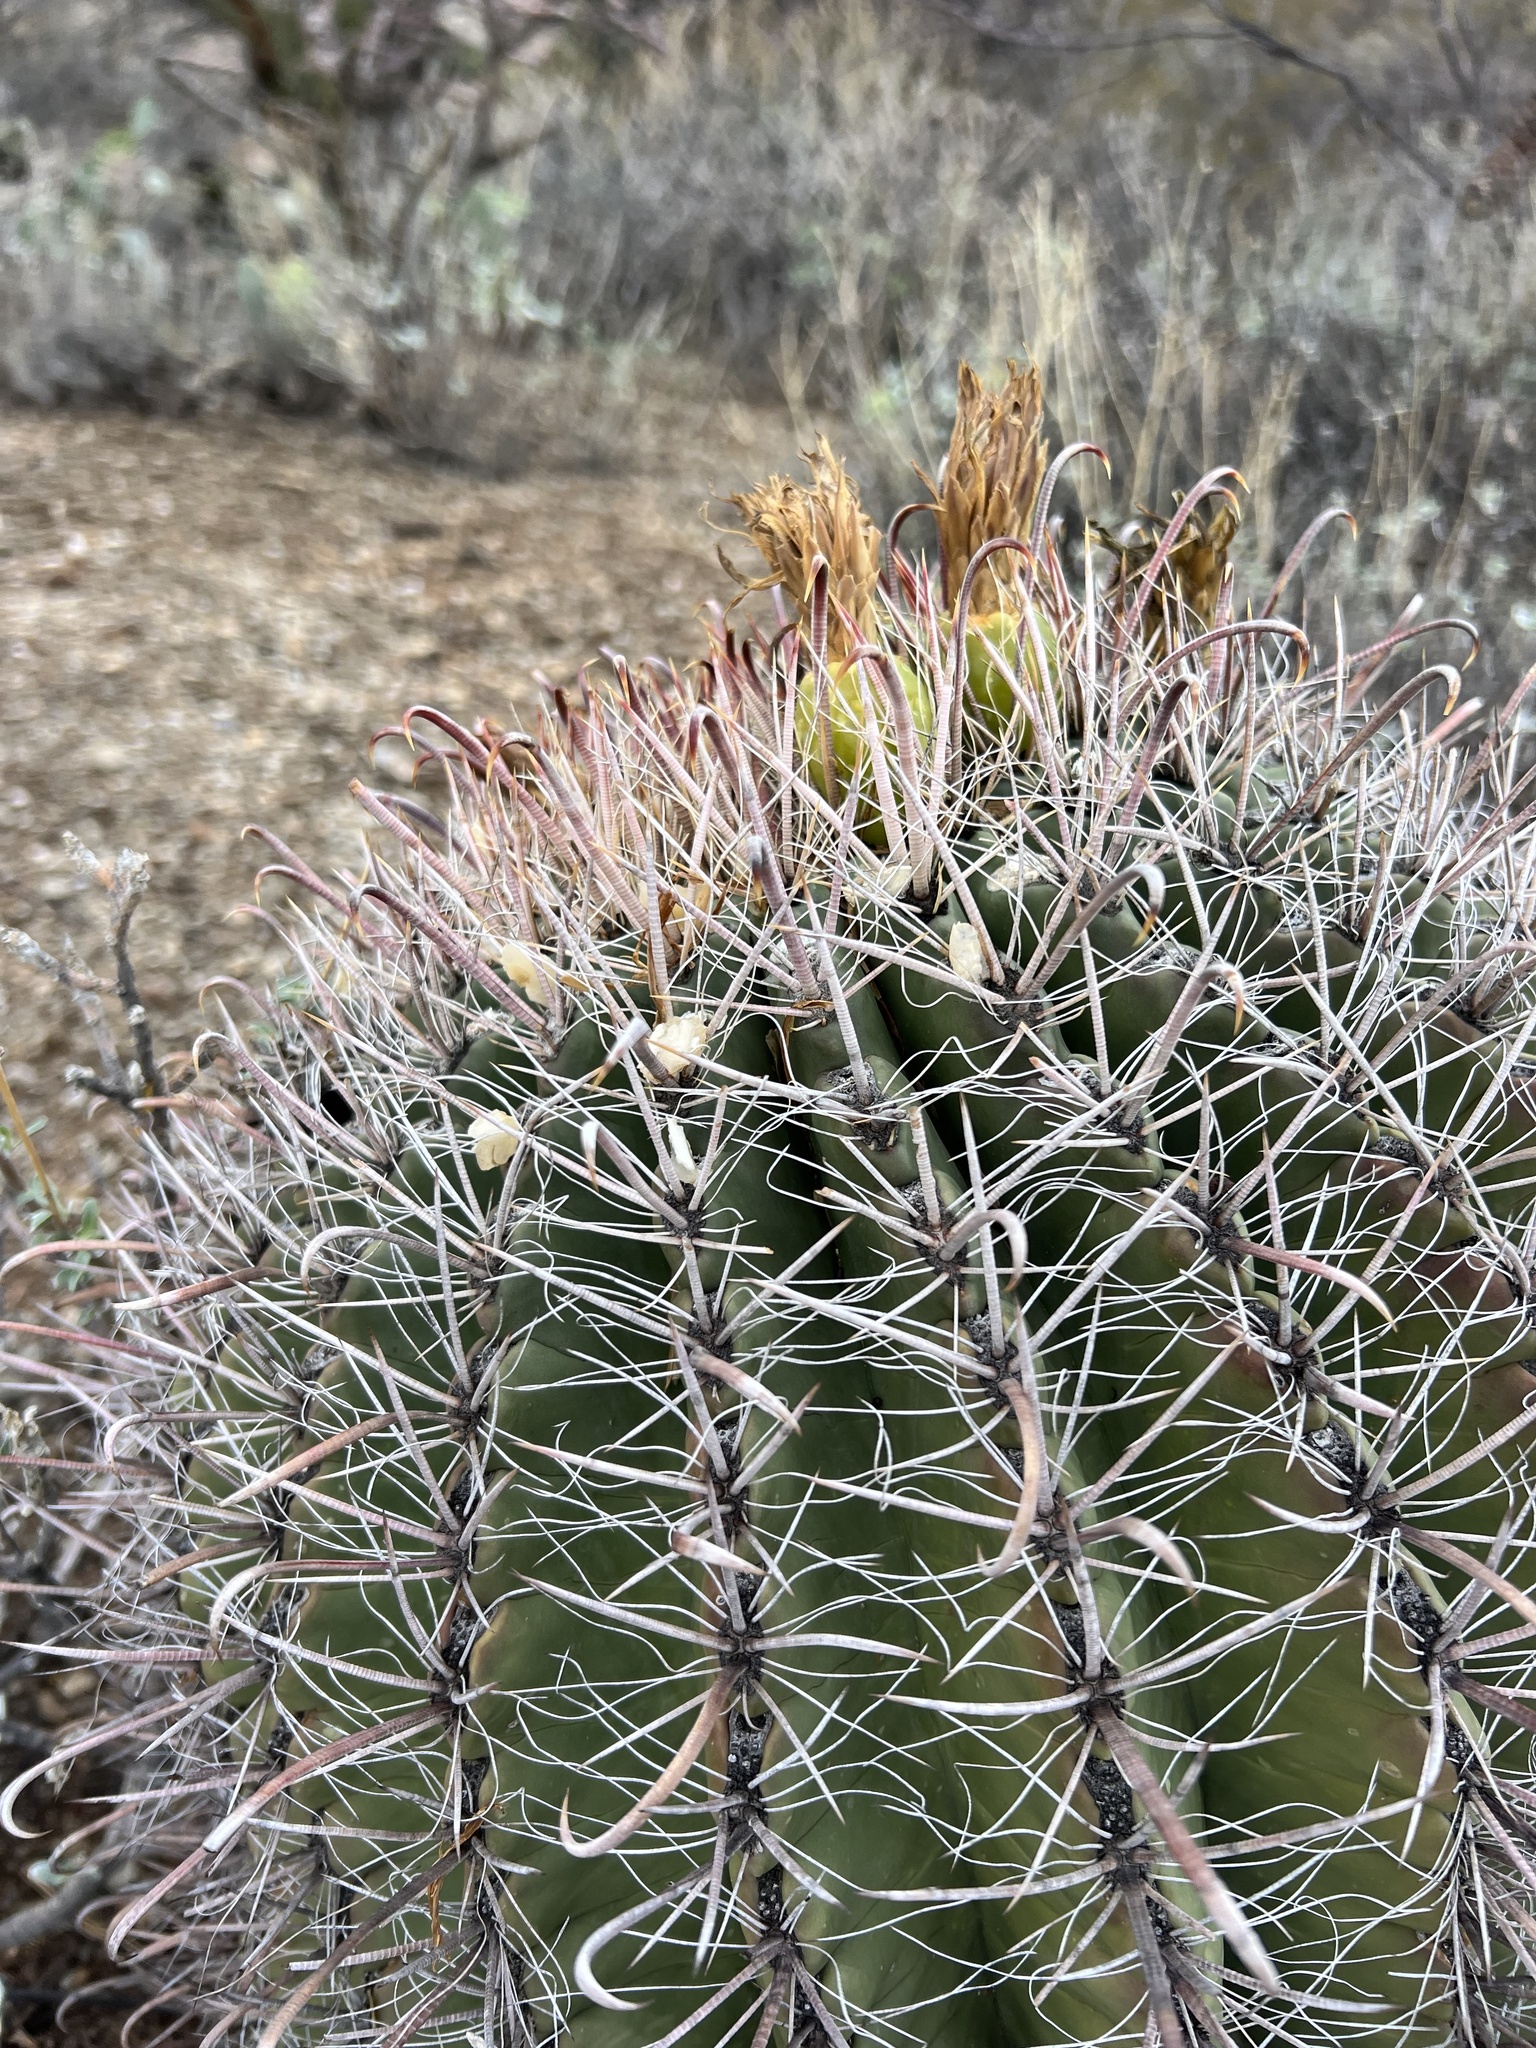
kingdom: Plantae
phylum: Tracheophyta
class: Magnoliopsida
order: Caryophyllales
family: Cactaceae
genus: Ferocactus
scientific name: Ferocactus wislizeni
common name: Candy barrel cactus
